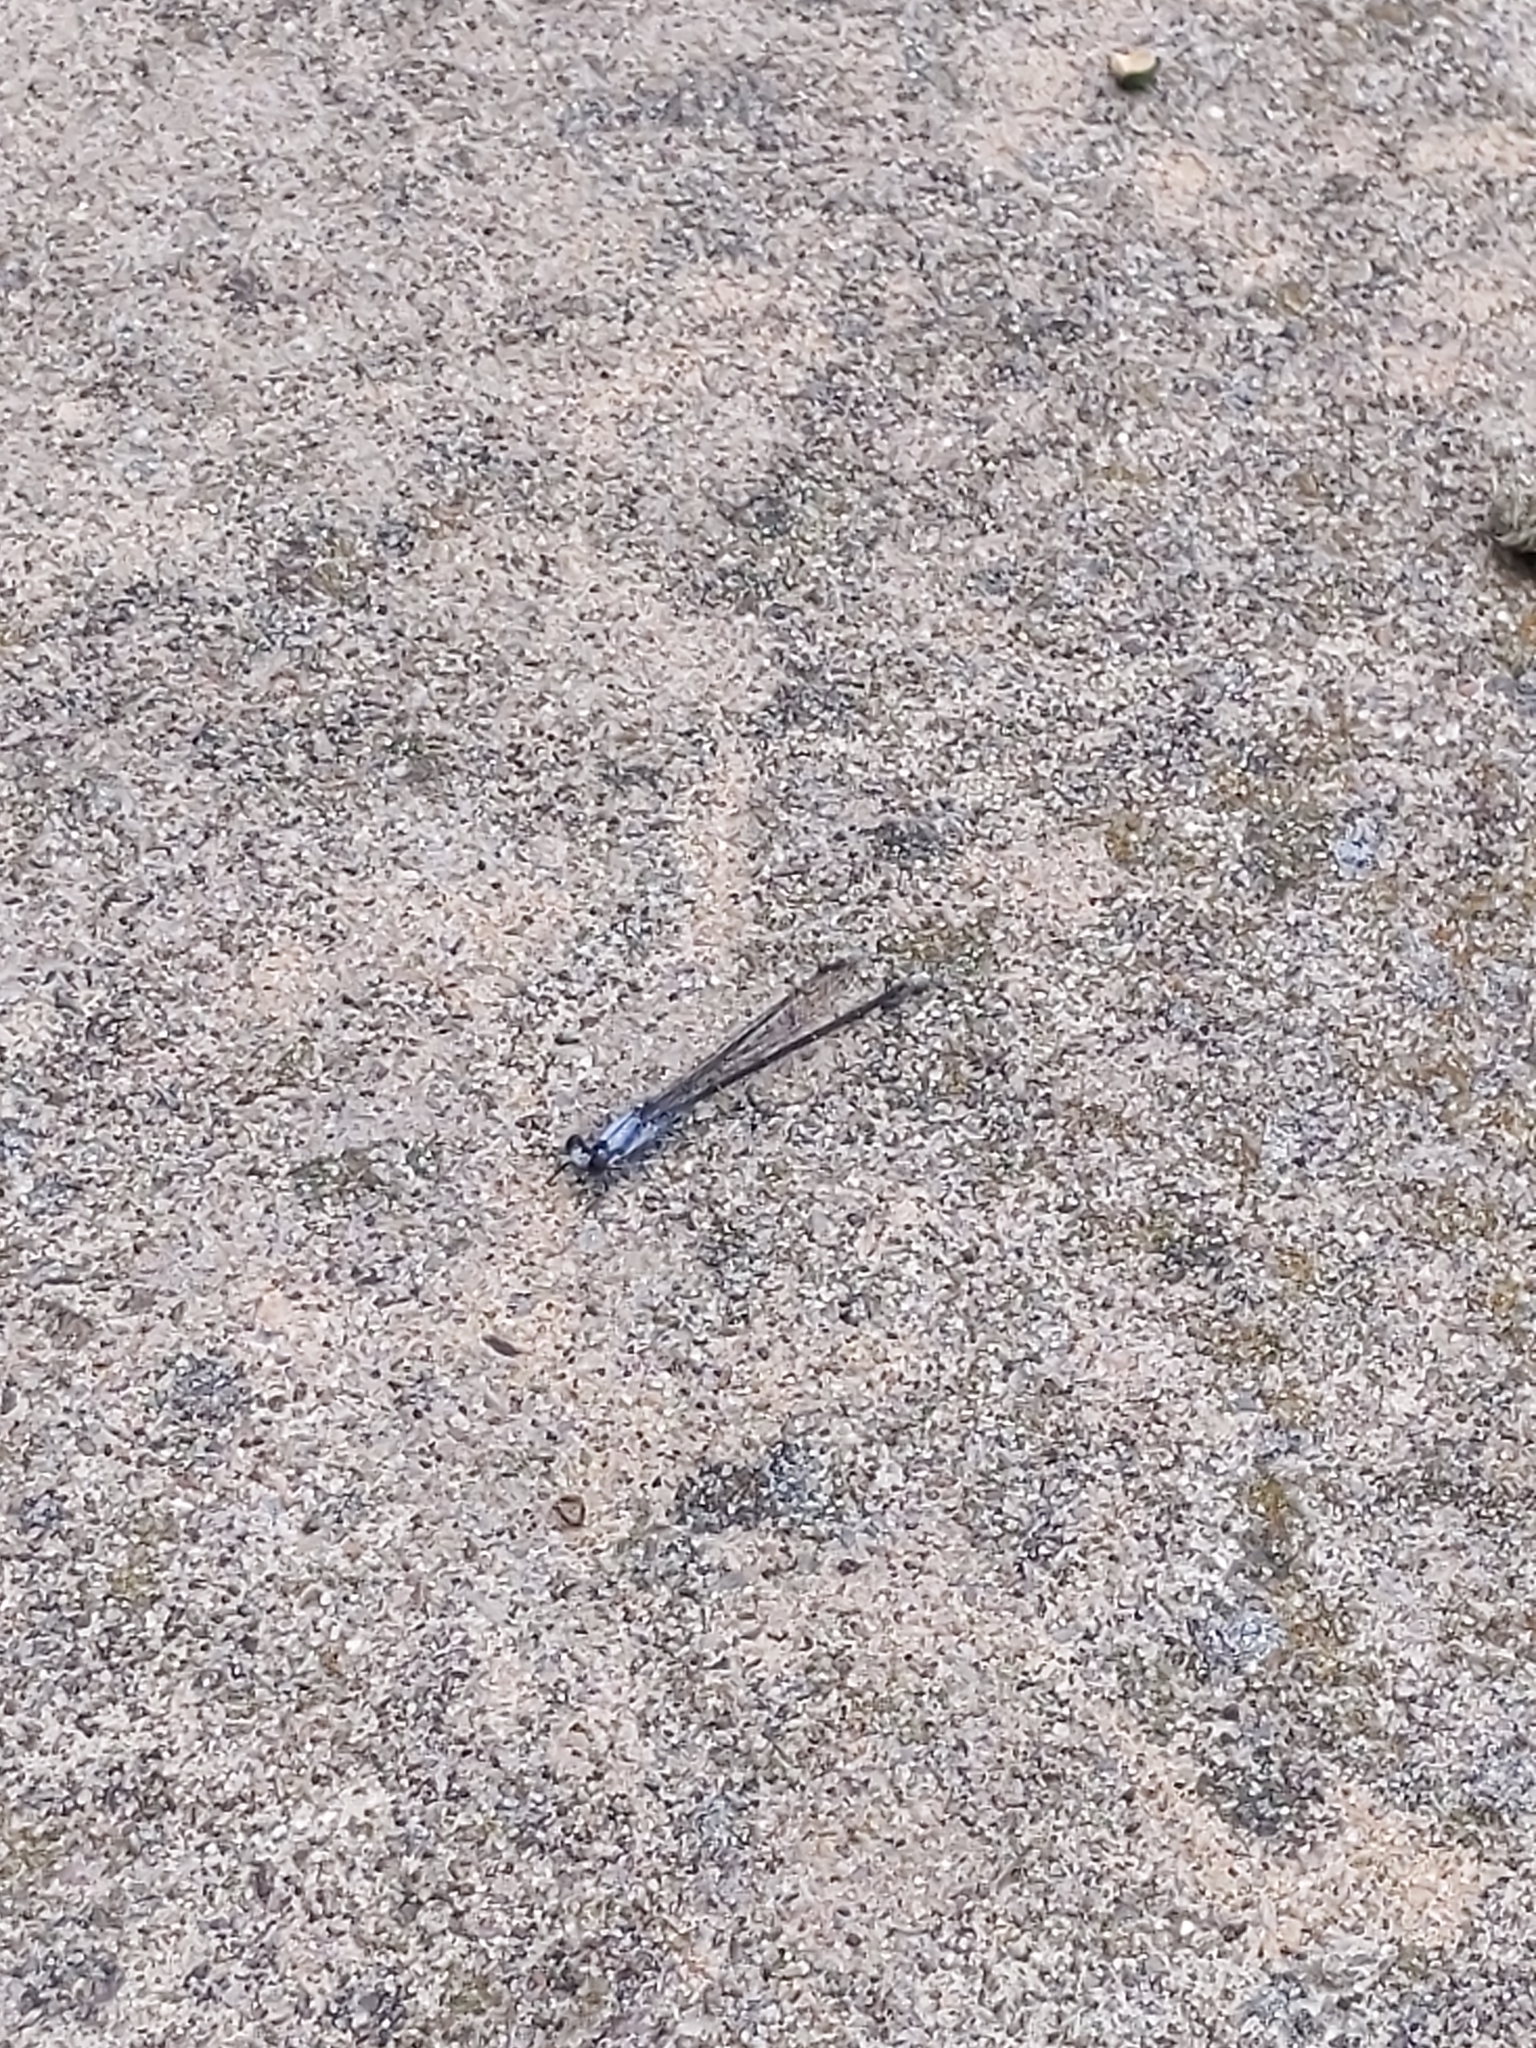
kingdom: Animalia
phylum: Arthropoda
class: Insecta
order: Odonata
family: Coenagrionidae
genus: Argia
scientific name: Argia moesta
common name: Powdered dancer
